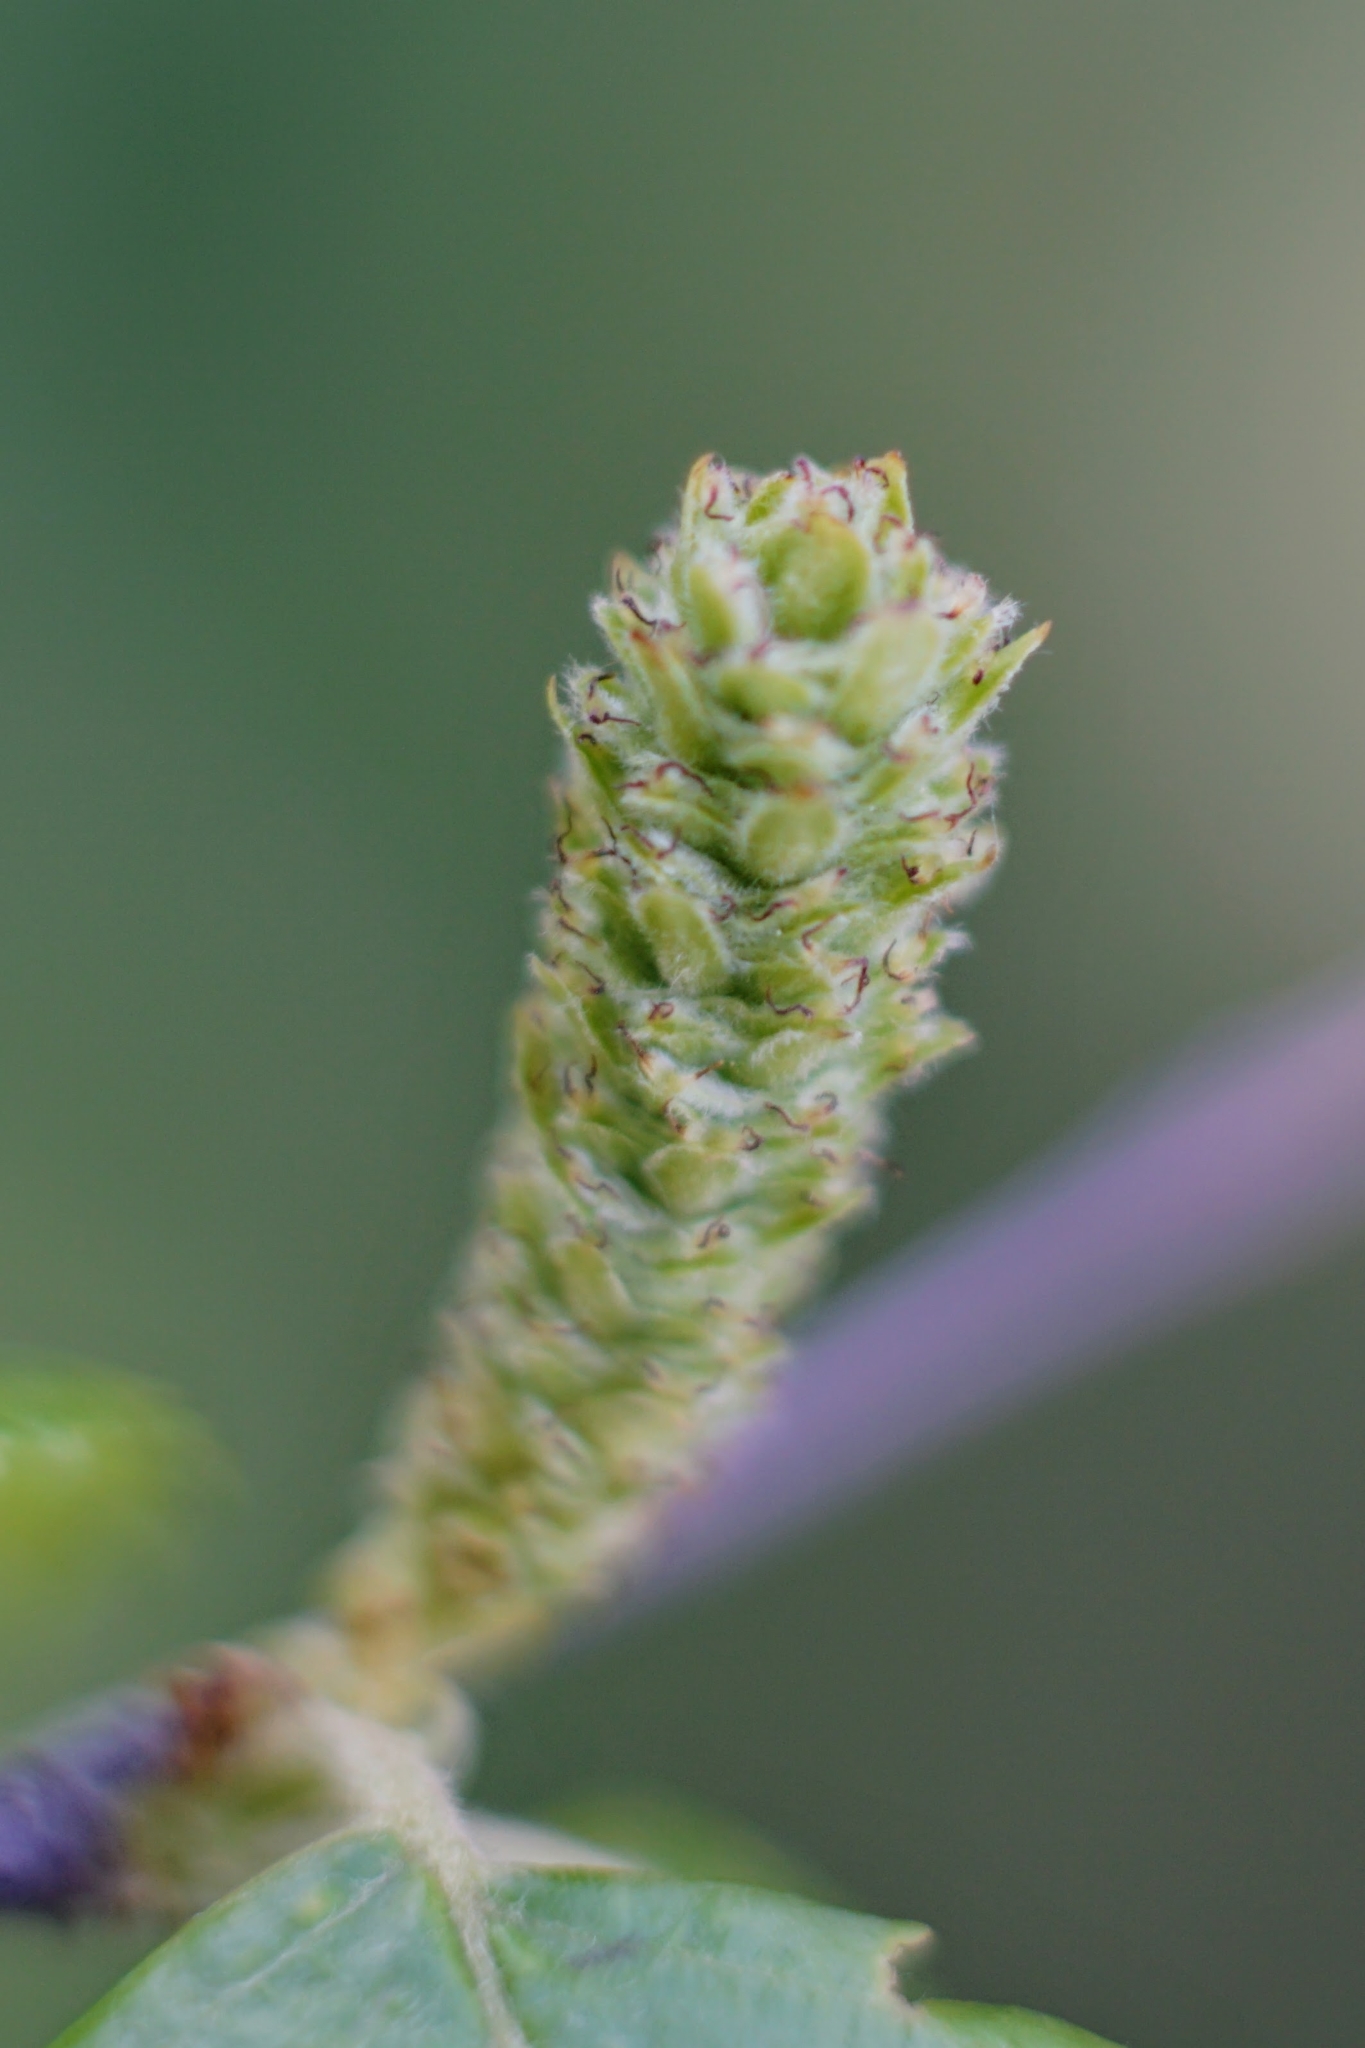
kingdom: Plantae
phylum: Tracheophyta
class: Magnoliopsida
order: Fagales
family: Betulaceae
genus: Betula
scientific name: Betula nigra
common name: Black birch
